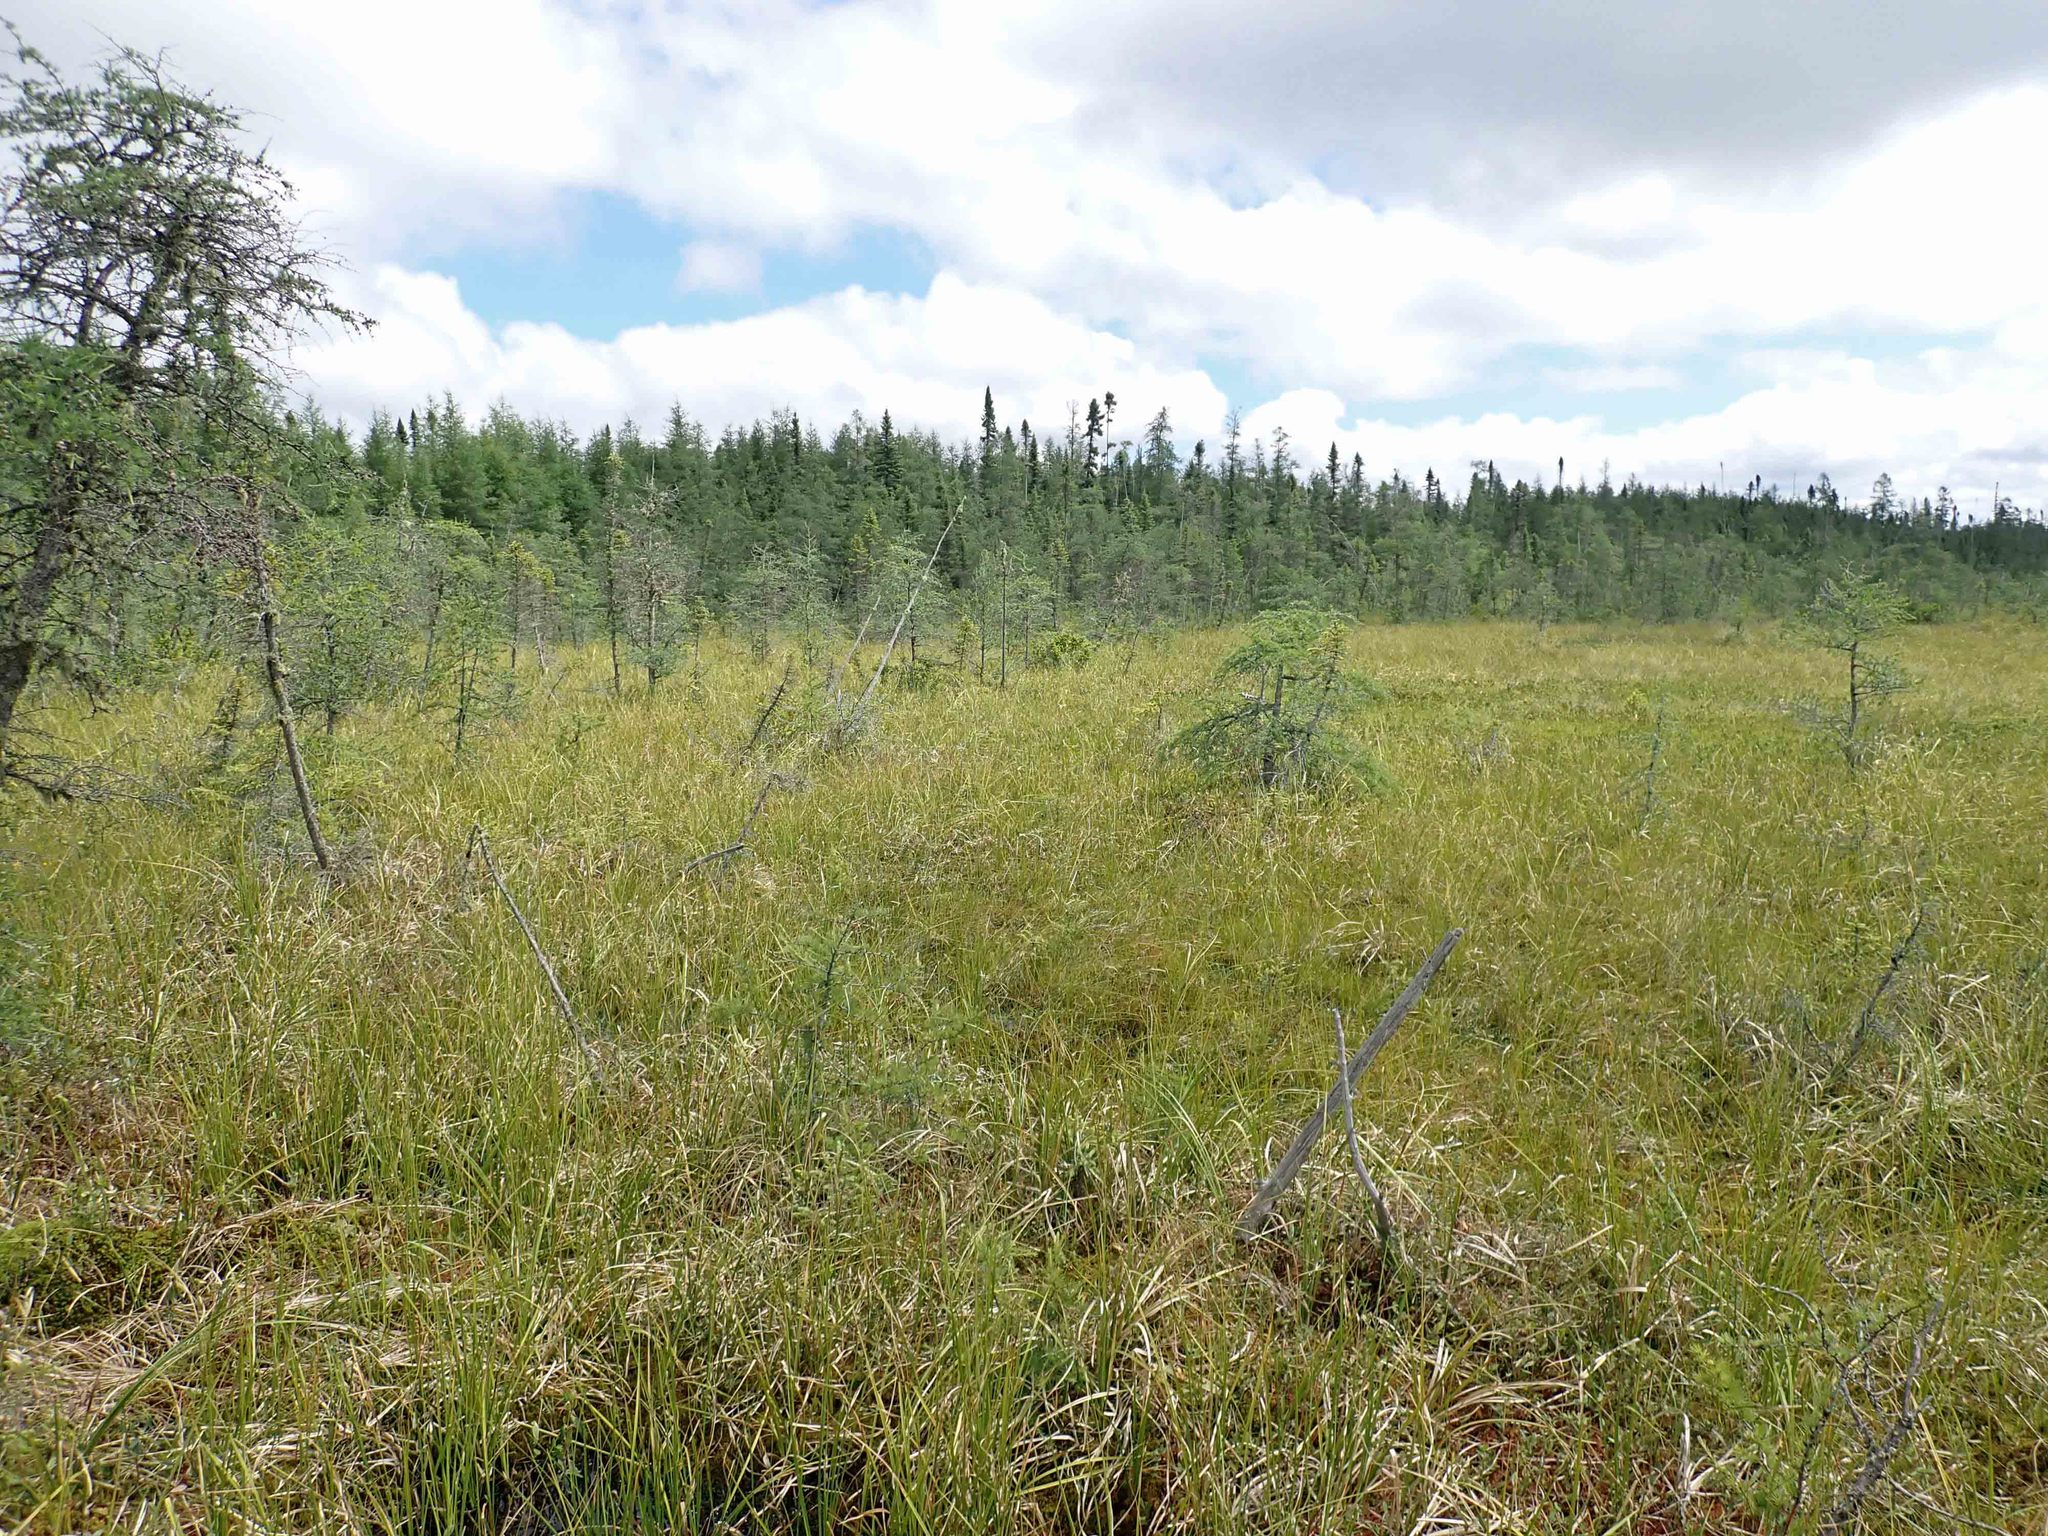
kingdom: Plantae
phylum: Tracheophyta
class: Pinopsida
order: Pinales
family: Pinaceae
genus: Larix
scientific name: Larix laricina
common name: American larch
